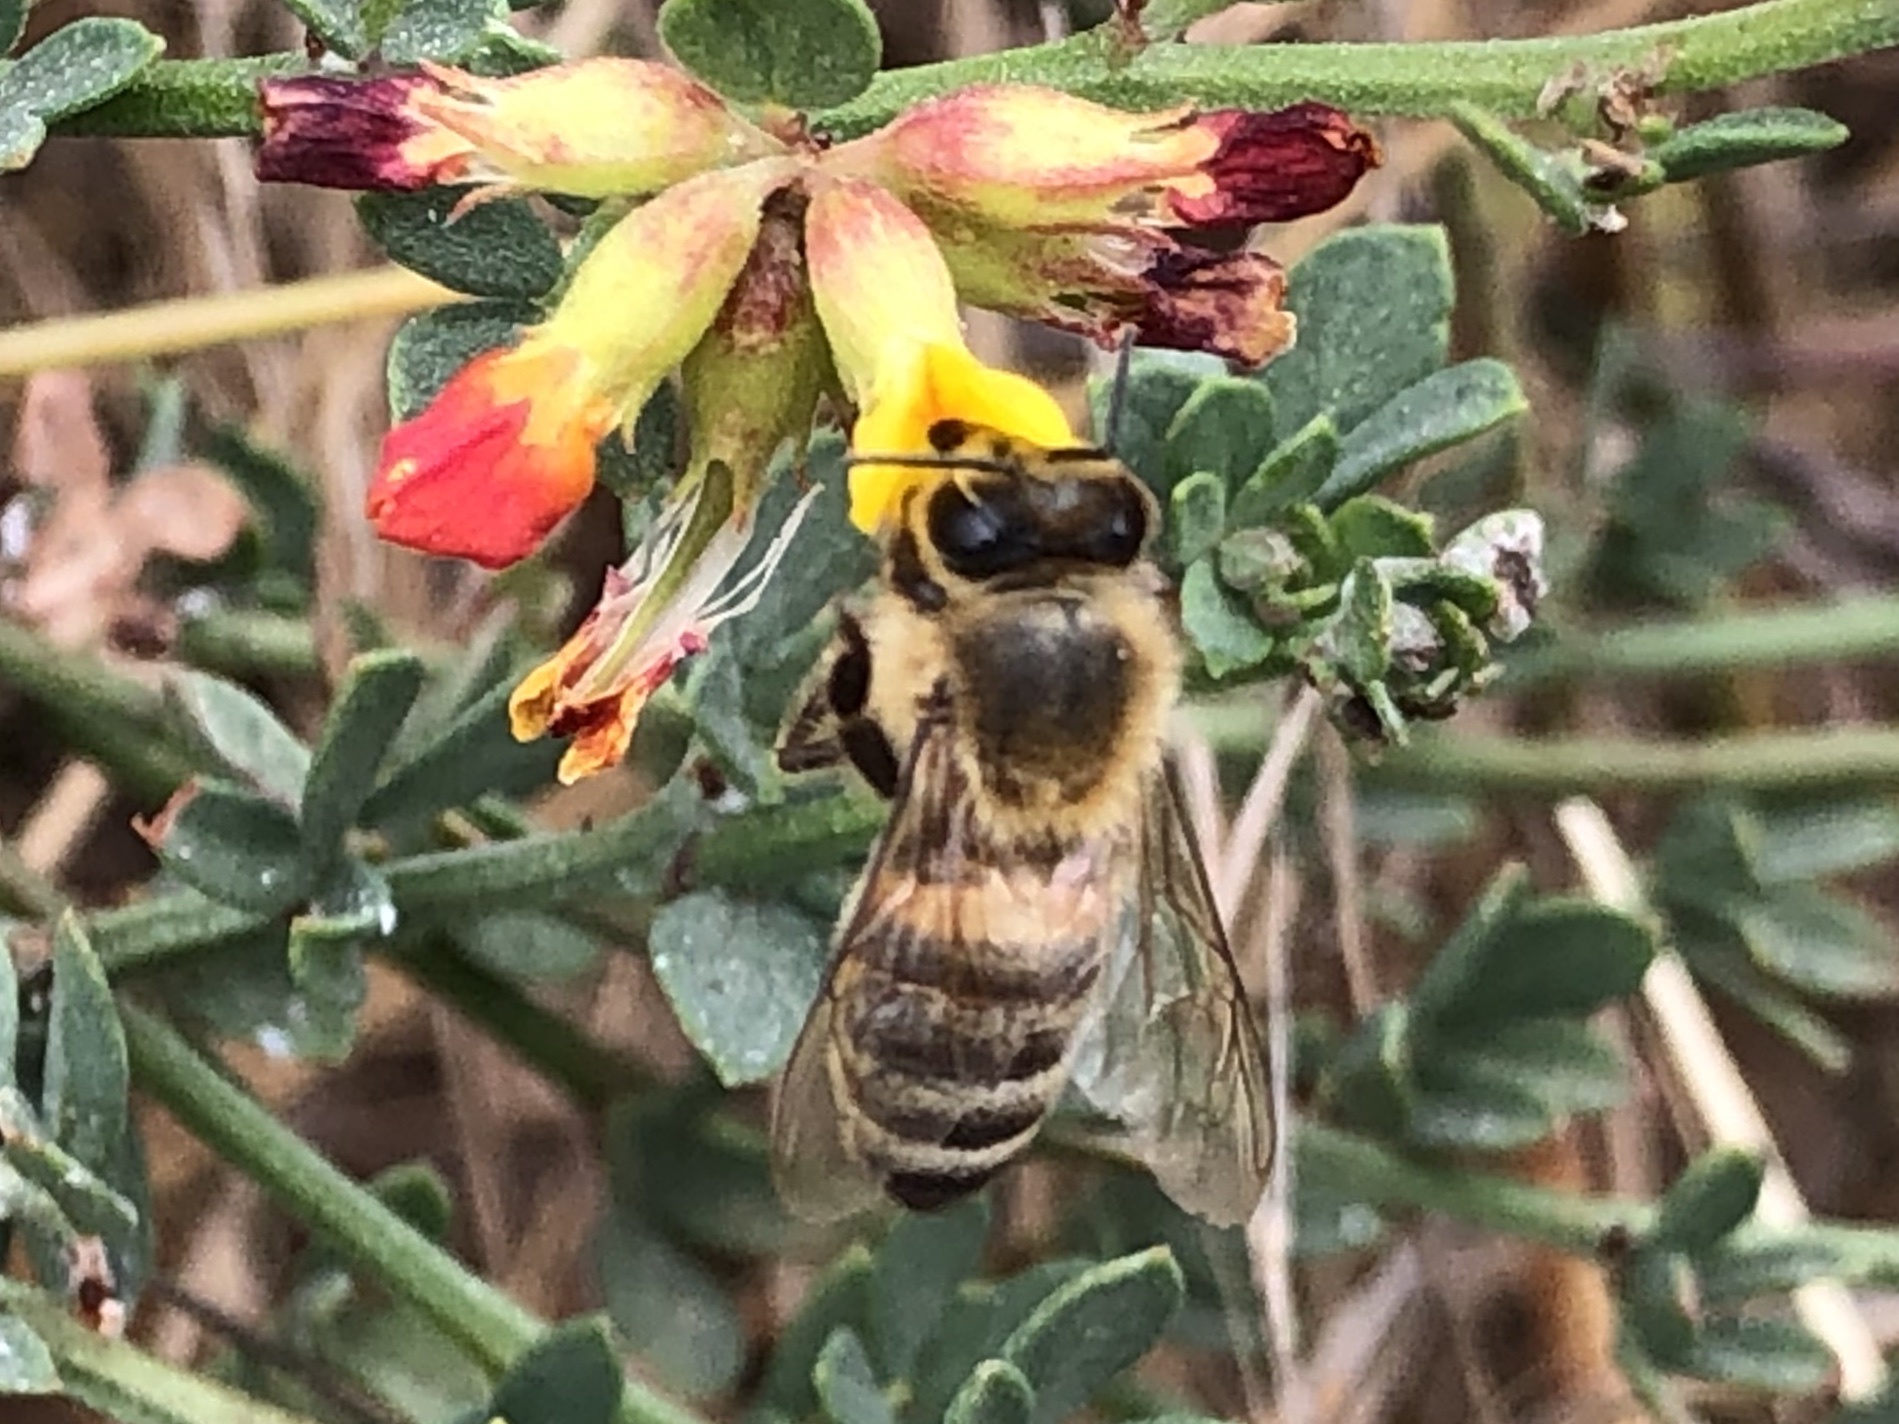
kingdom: Animalia
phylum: Arthropoda
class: Insecta
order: Hymenoptera
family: Apidae
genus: Apis
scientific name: Apis mellifera
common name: Honey bee
